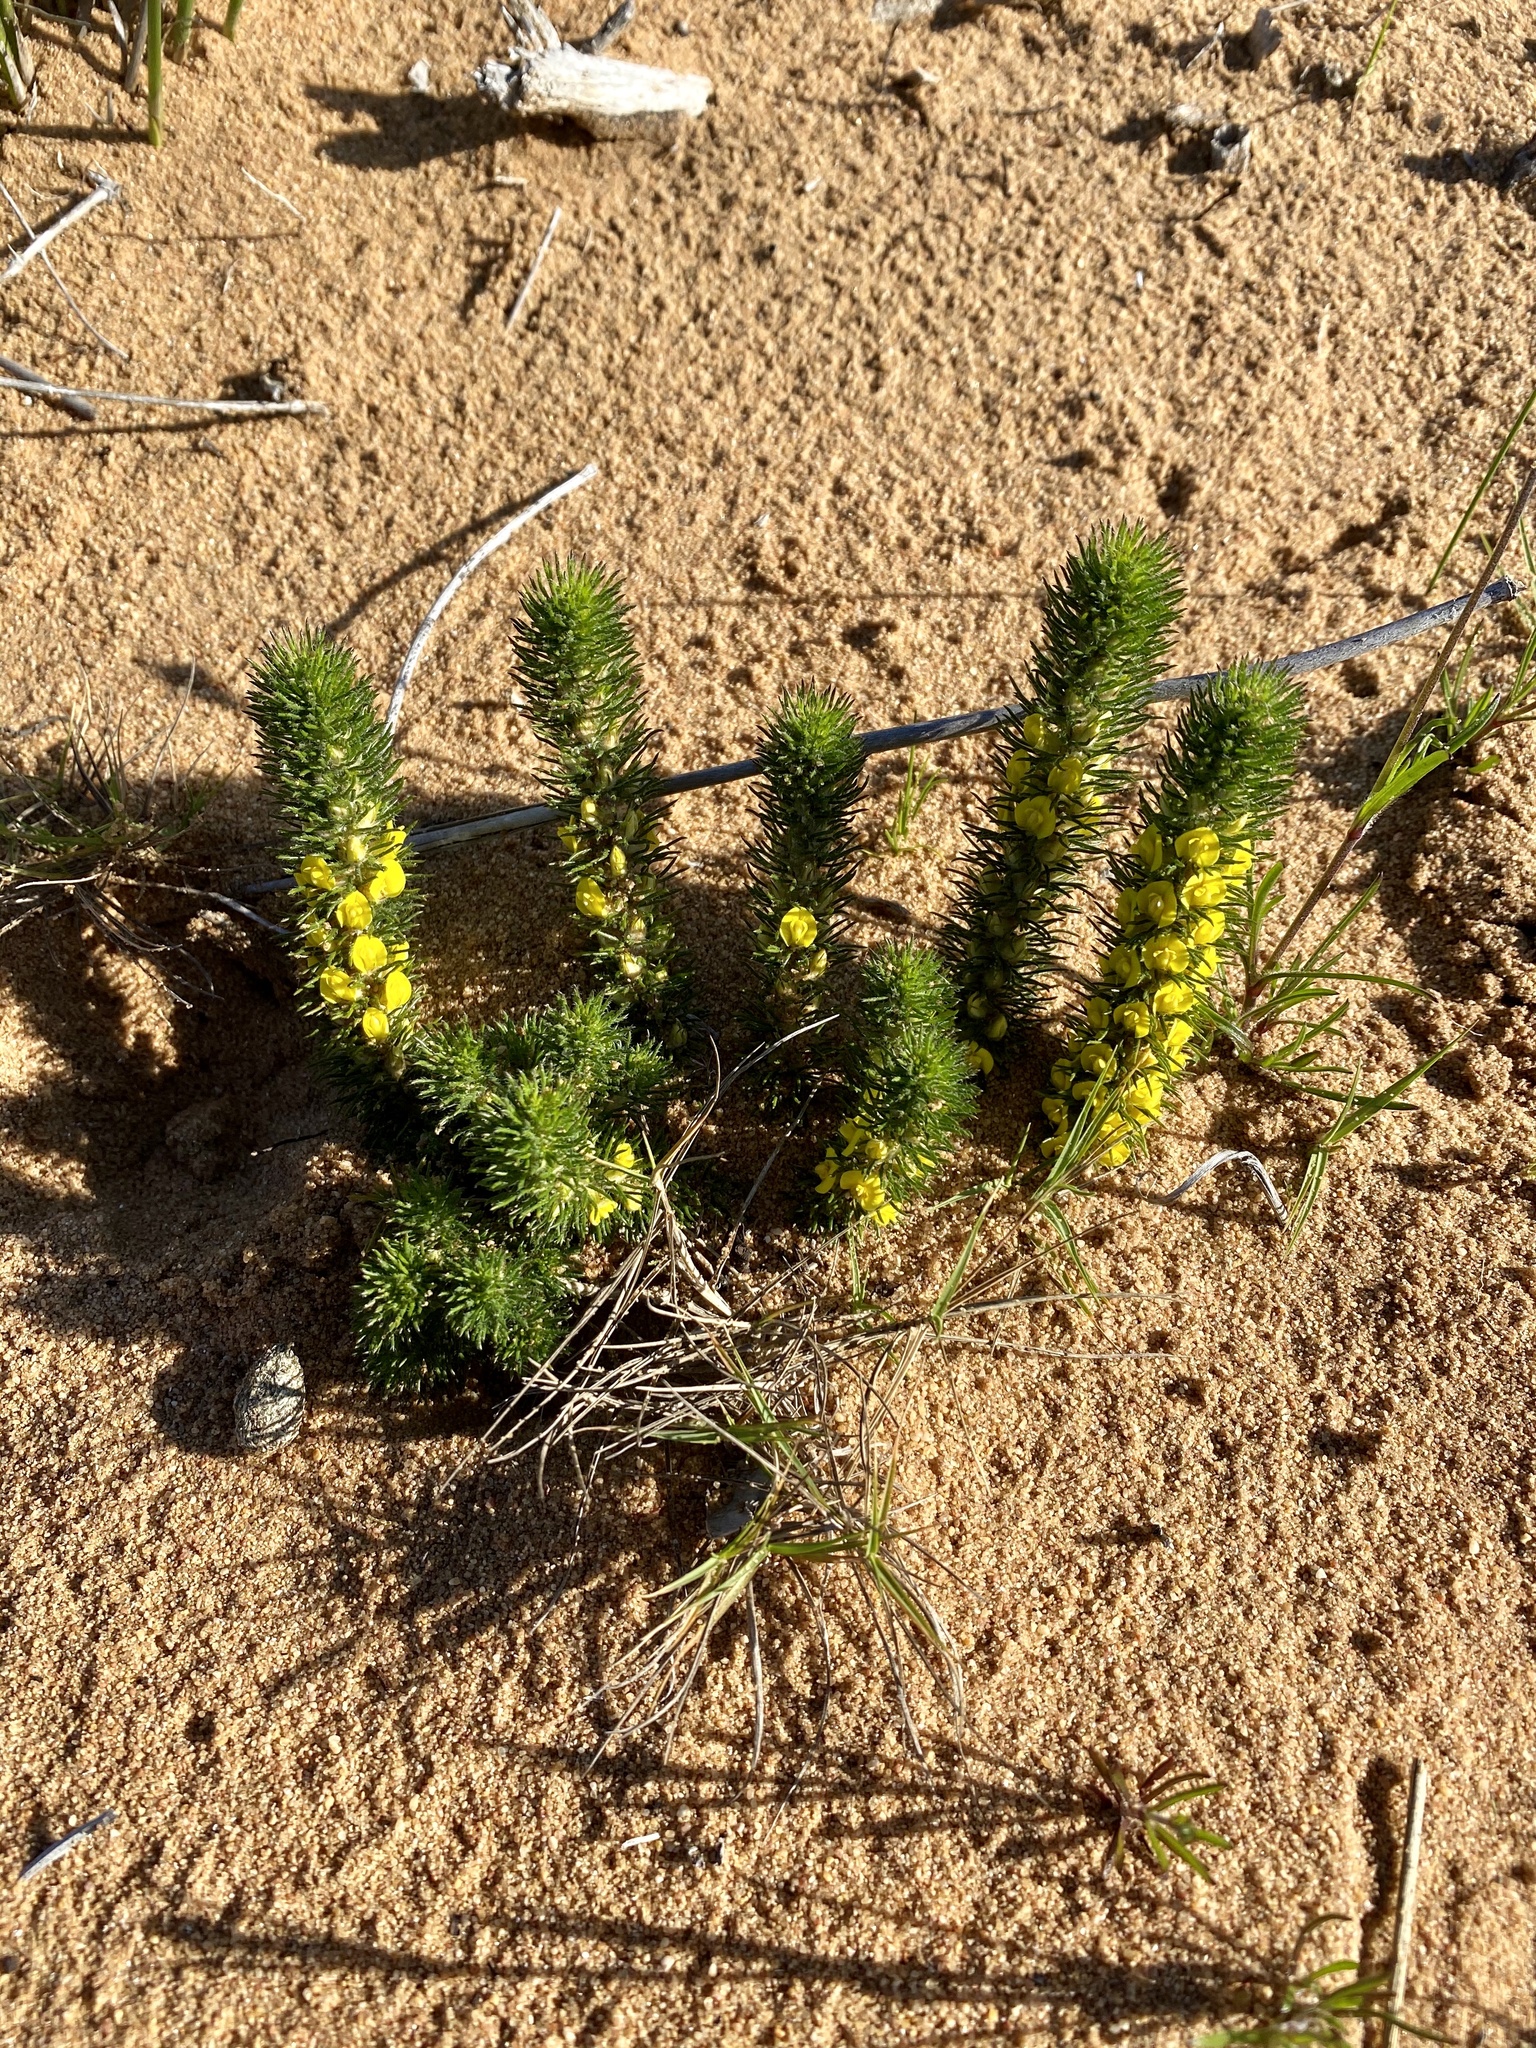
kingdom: Plantae
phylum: Tracheophyta
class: Magnoliopsida
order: Fabales
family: Fabaceae
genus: Aspalathus
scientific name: Aspalathus alopecurus
